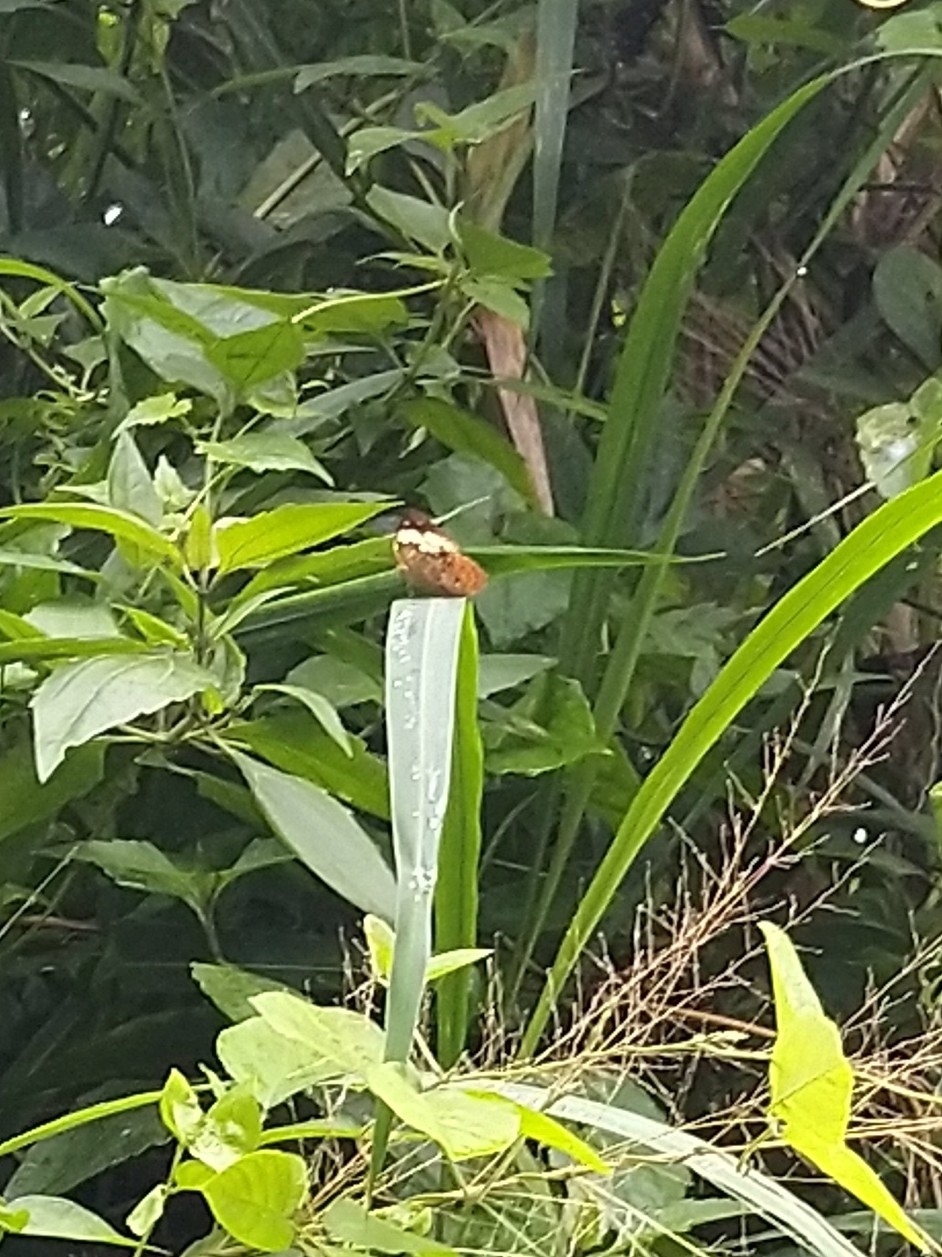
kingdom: Animalia
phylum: Arthropoda
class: Insecta
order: Lepidoptera
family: Nymphalidae
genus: Cupha
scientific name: Cupha erymanthis
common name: Rustic
